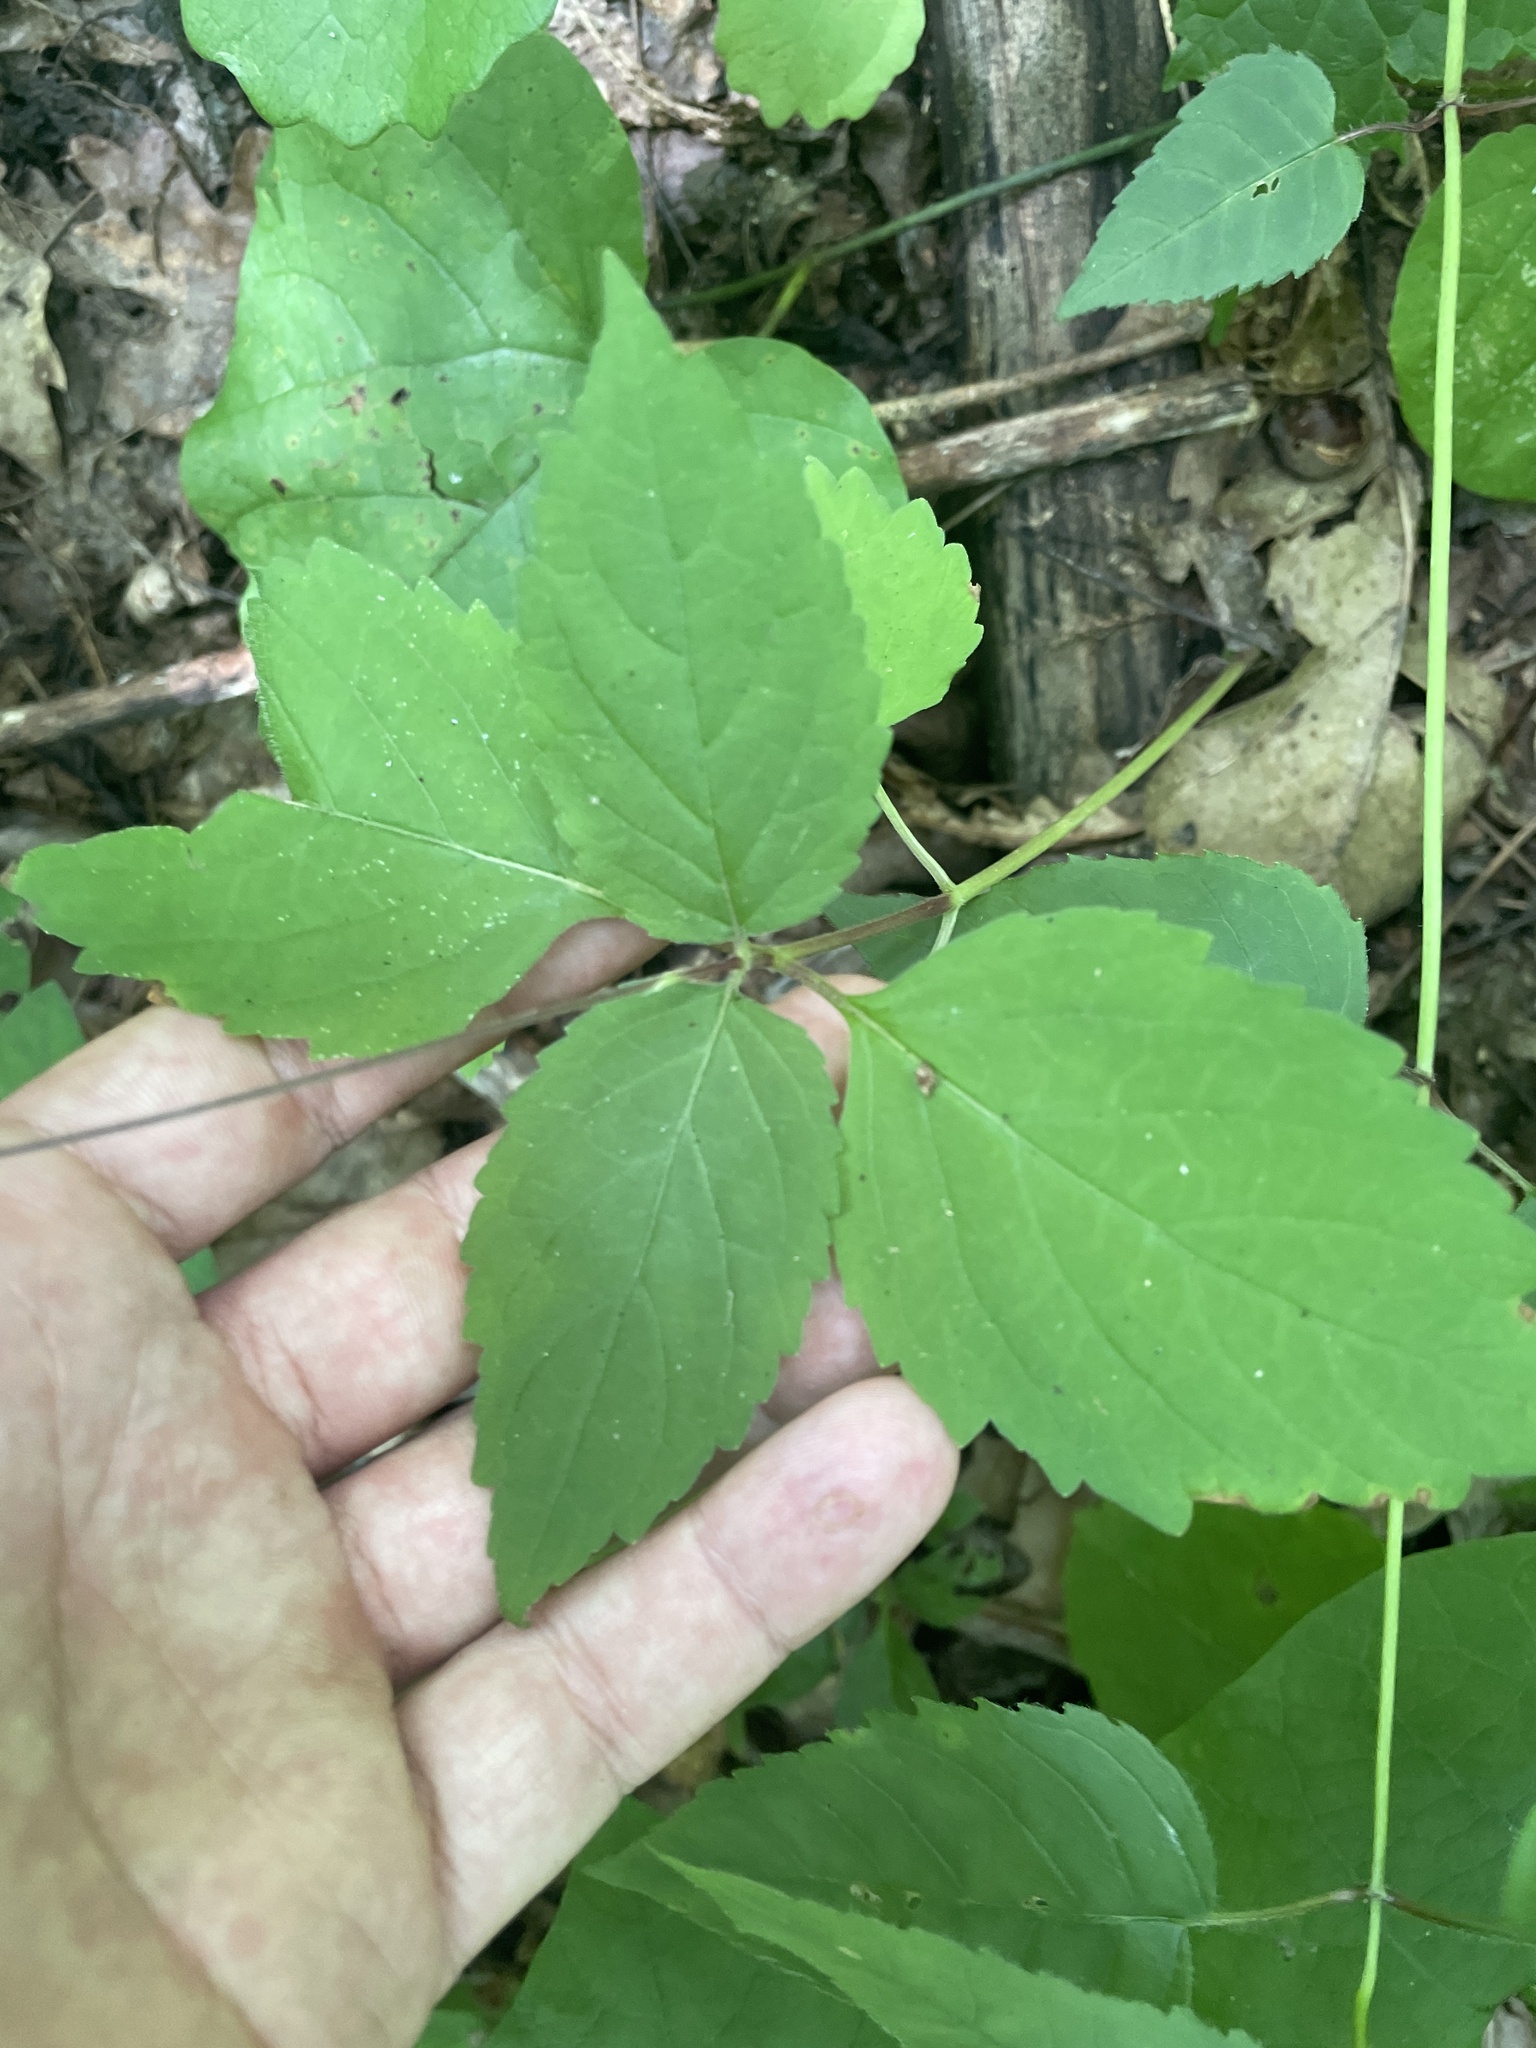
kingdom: Plantae
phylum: Tracheophyta
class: Magnoliopsida
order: Lamiales
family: Phrymaceae
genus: Phryma
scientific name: Phryma leptostachya
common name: American lopseed
